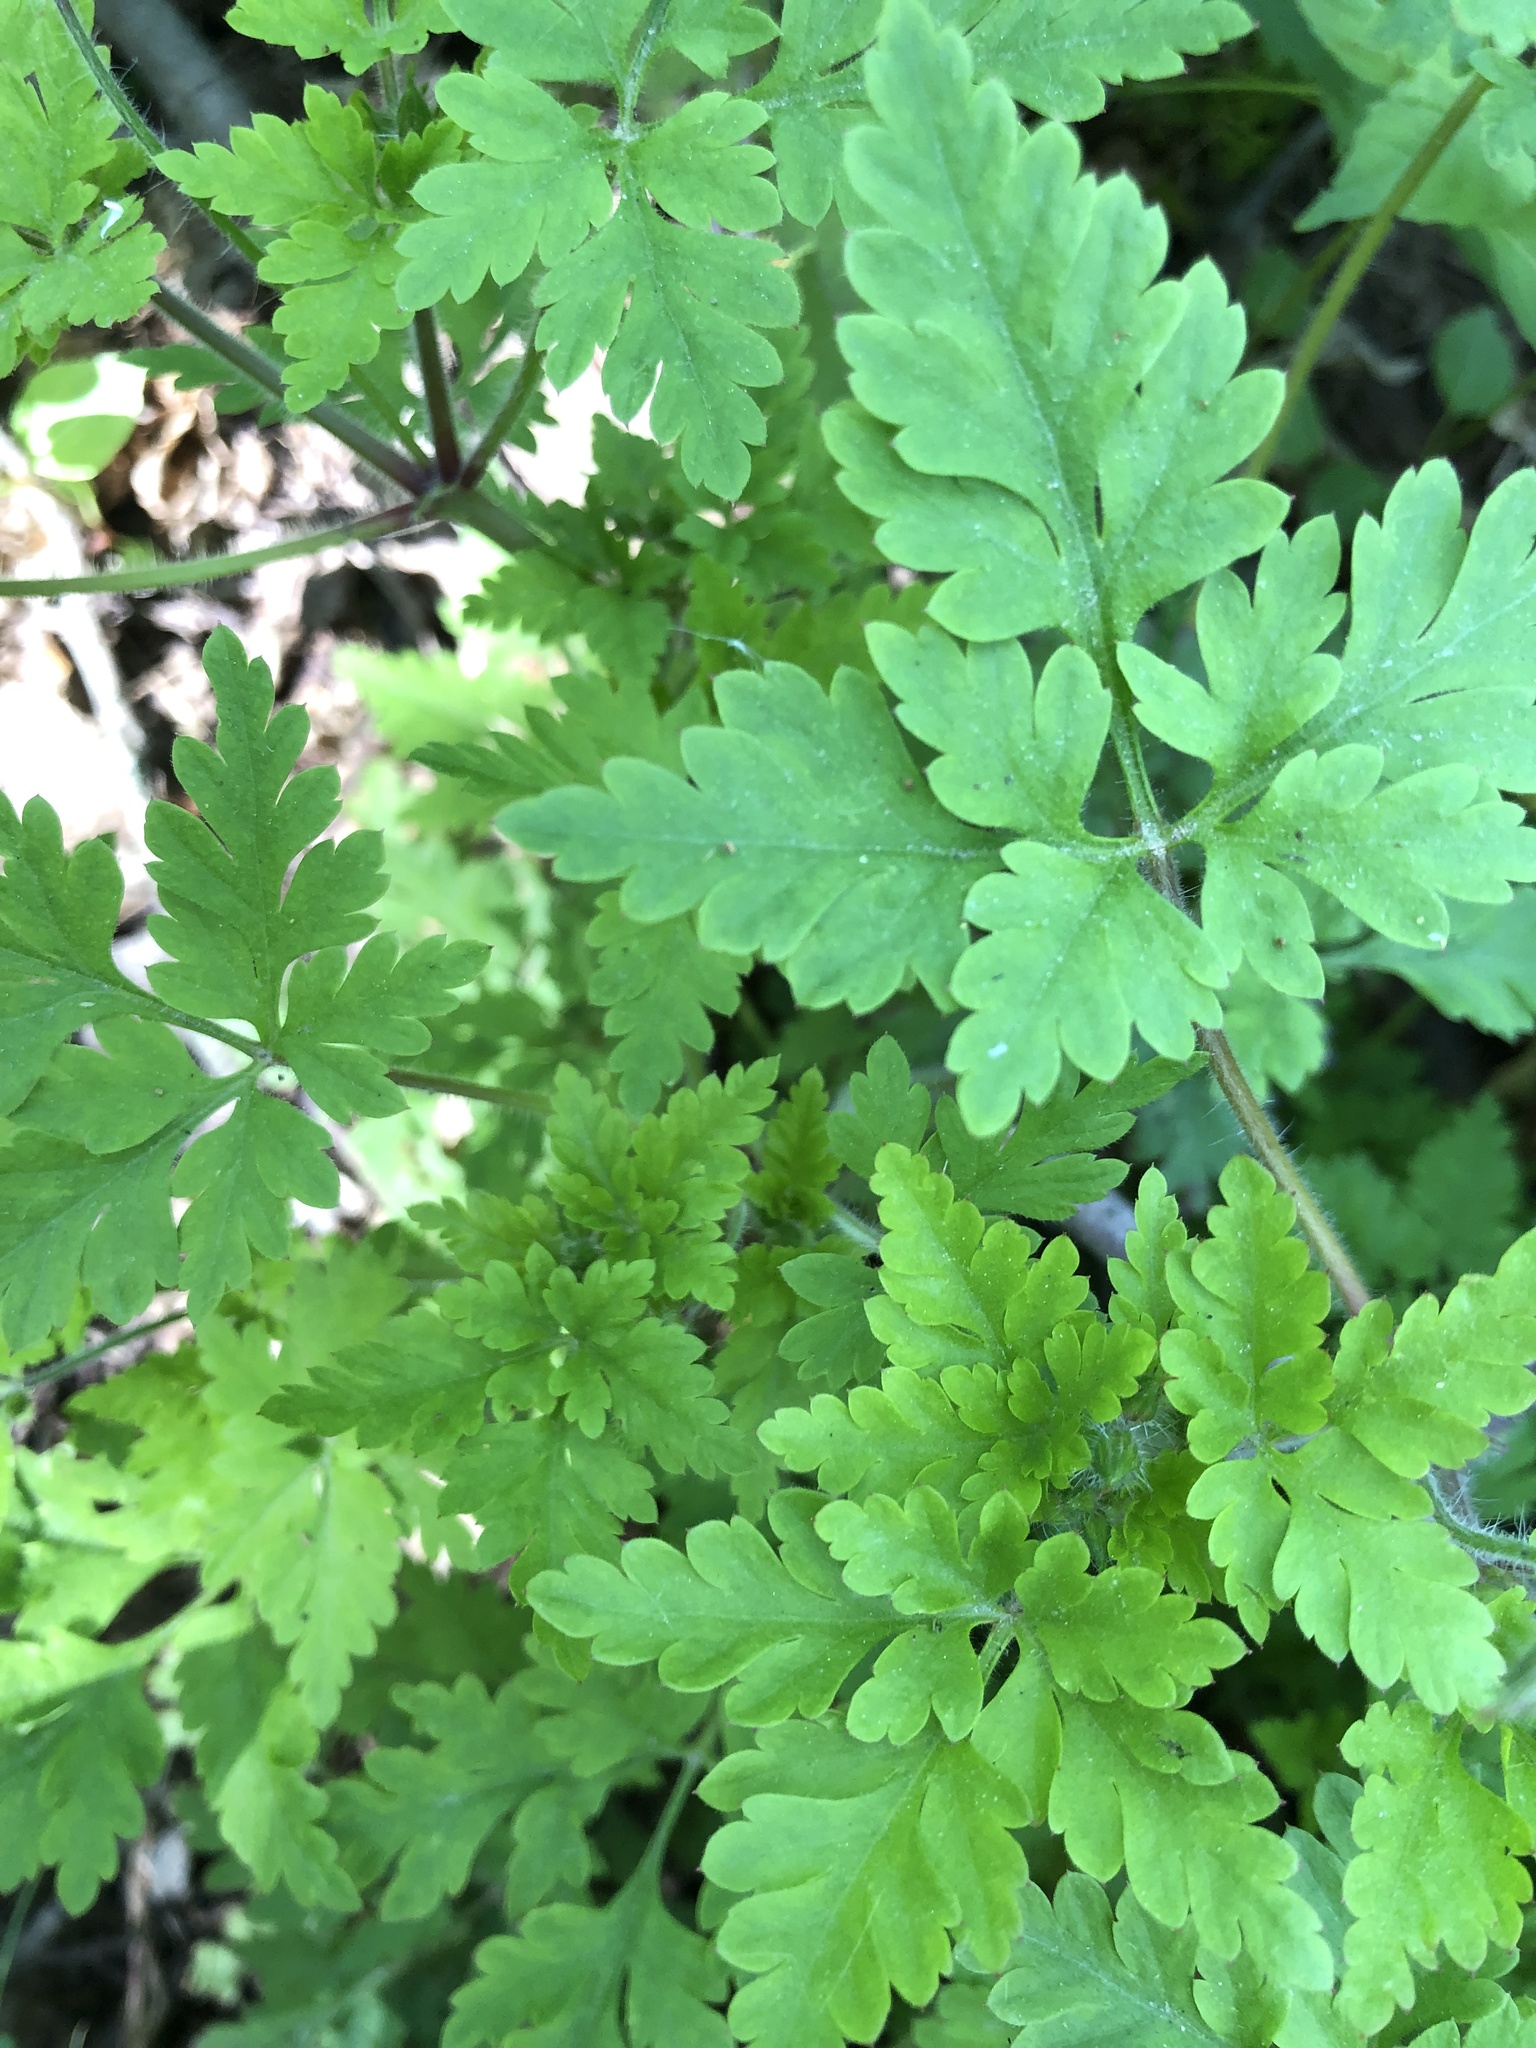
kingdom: Plantae
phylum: Tracheophyta
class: Magnoliopsida
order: Geraniales
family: Geraniaceae
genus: Geranium
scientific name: Geranium robertianum
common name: Herb-robert
